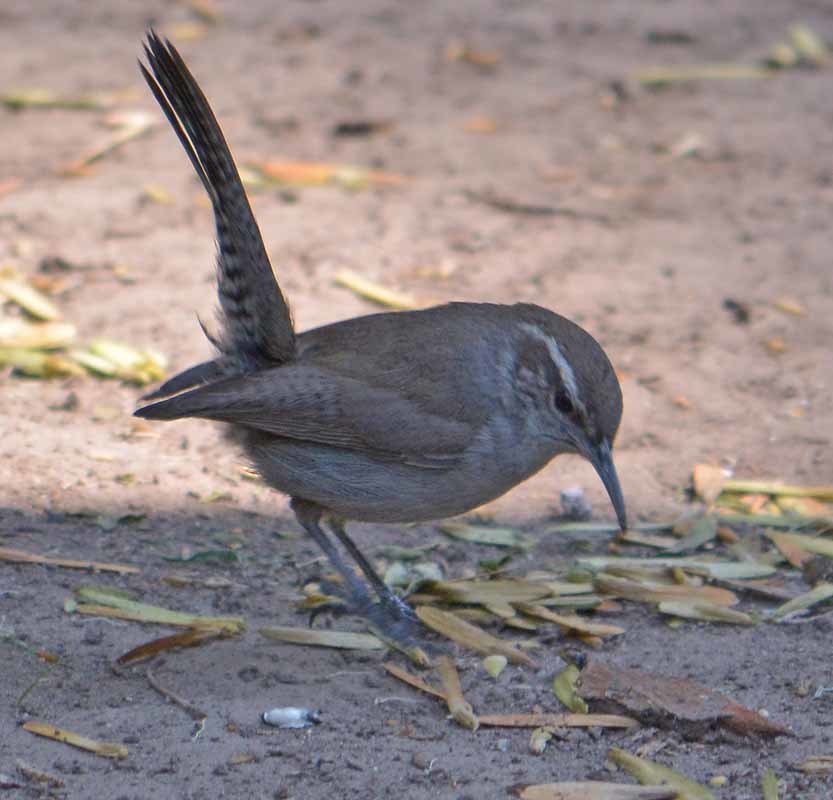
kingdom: Animalia
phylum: Chordata
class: Aves
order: Passeriformes
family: Troglodytidae
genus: Thryomanes
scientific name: Thryomanes bewickii
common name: Bewick's wren
